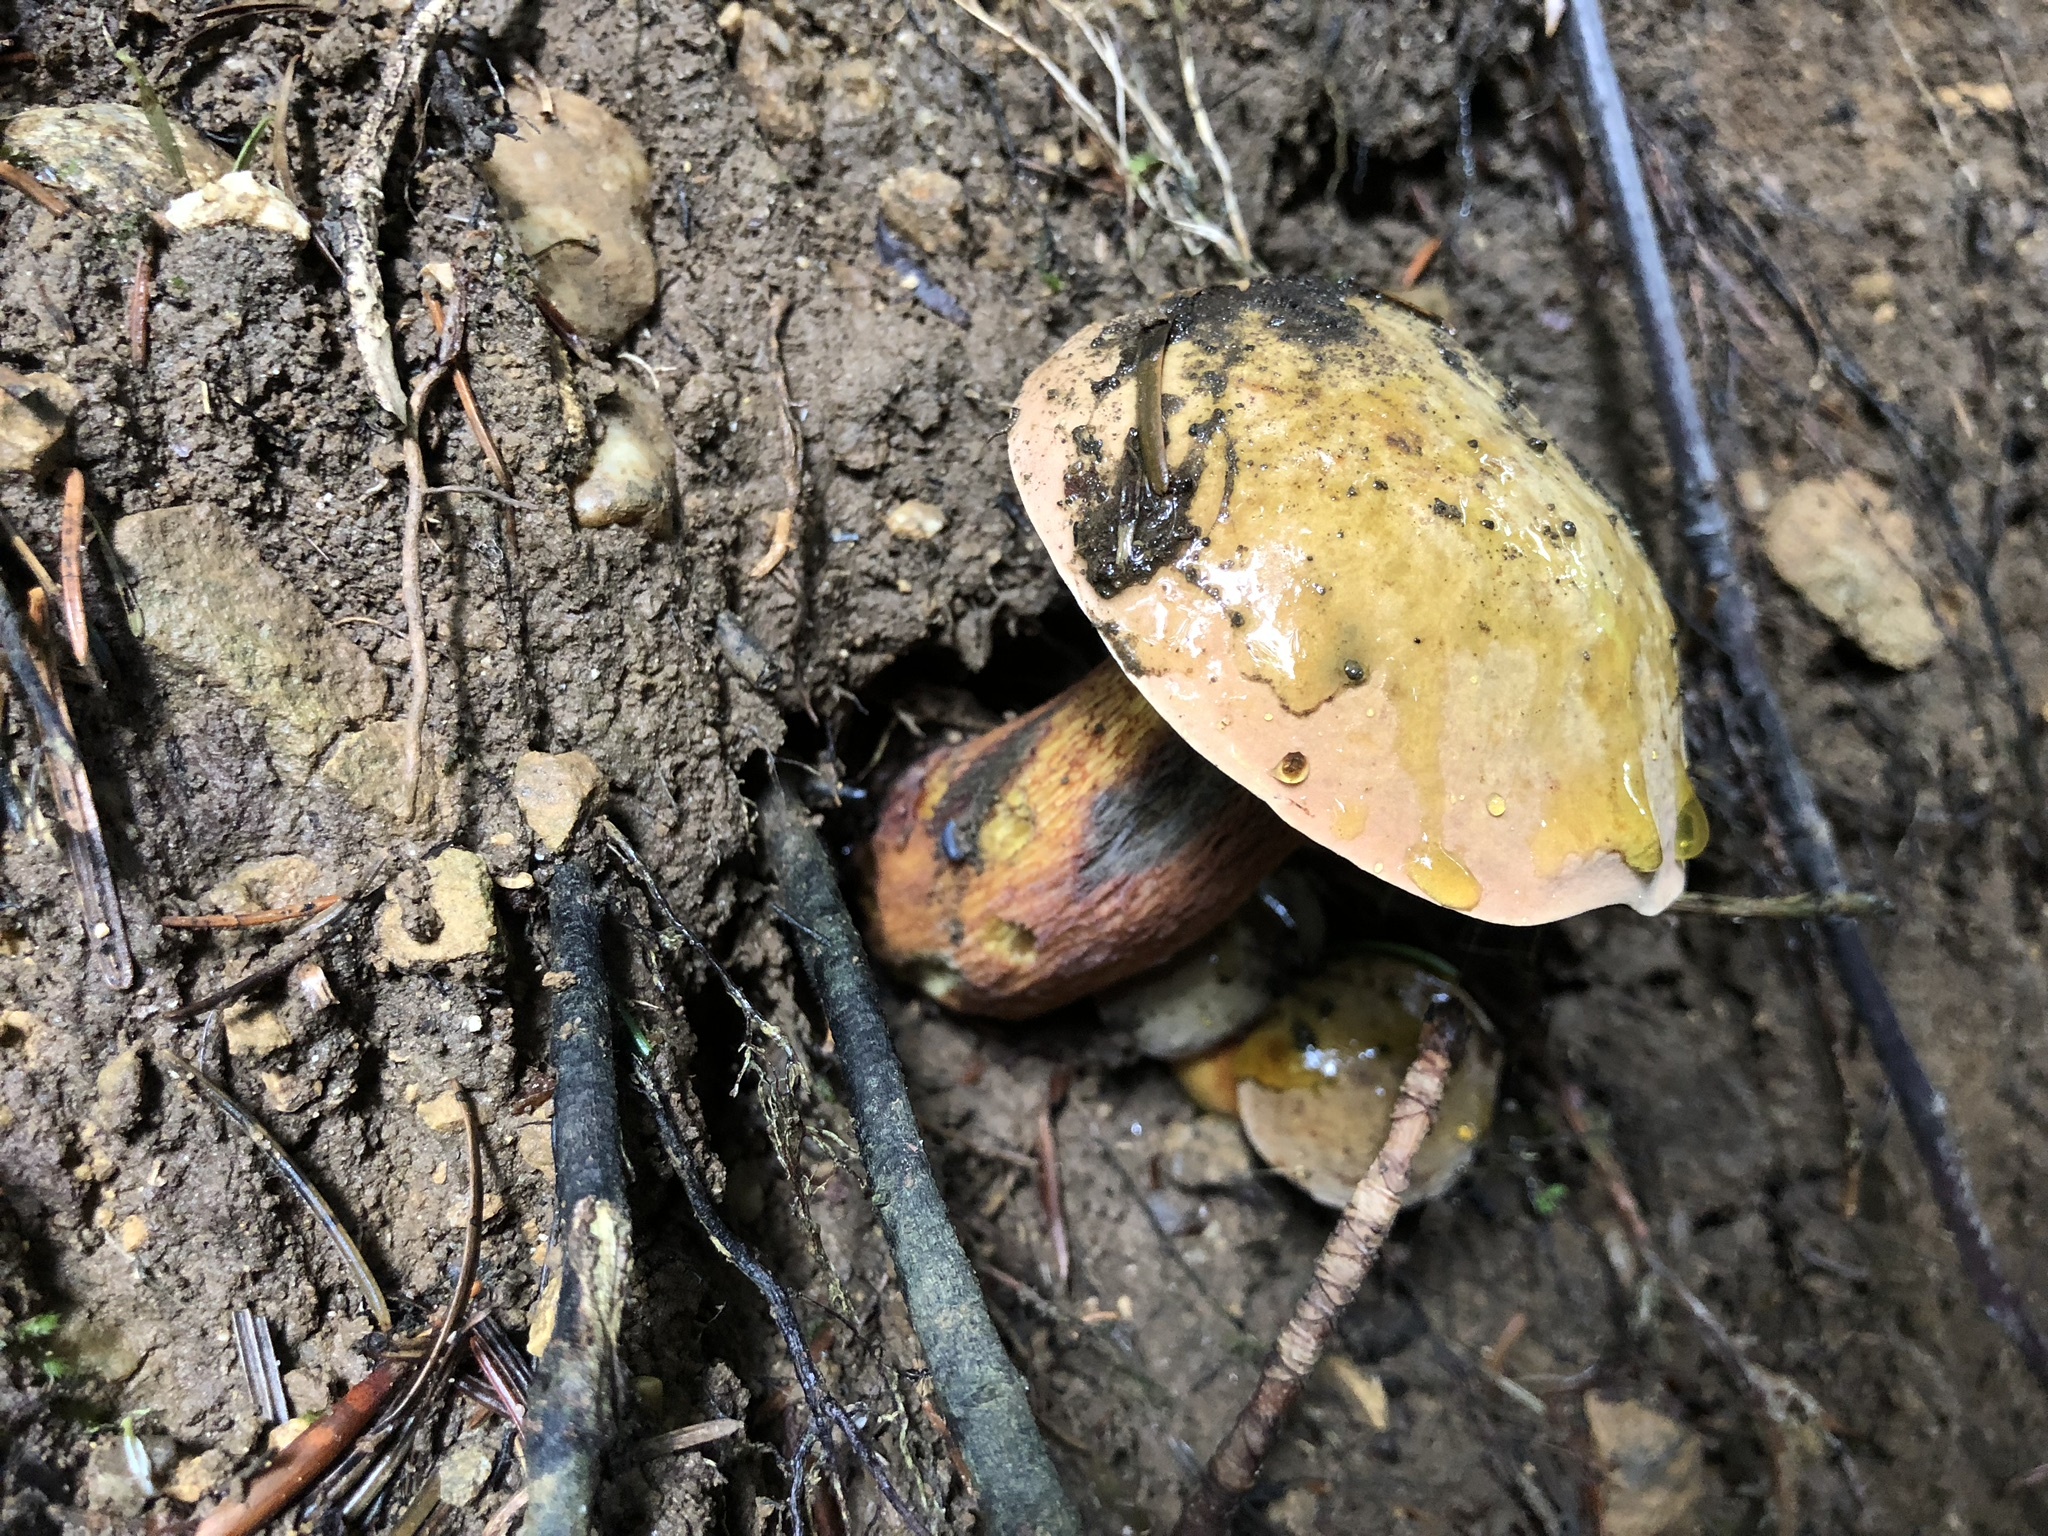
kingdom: Fungi
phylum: Basidiomycota
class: Agaricomycetes
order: Boletales
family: Boletaceae
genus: Suillellus
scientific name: Suillellus luridus
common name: Lurid bolete
